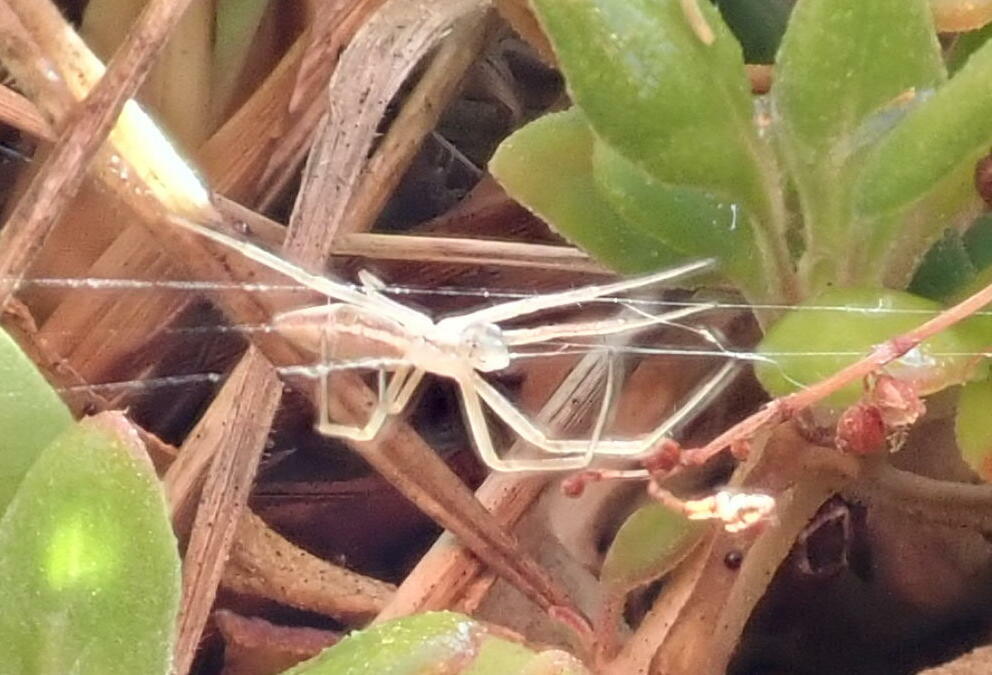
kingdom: Animalia
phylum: Arthropoda
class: Arachnida
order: Araneae
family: Araneidae
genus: Argiope
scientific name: Argiope protensa
